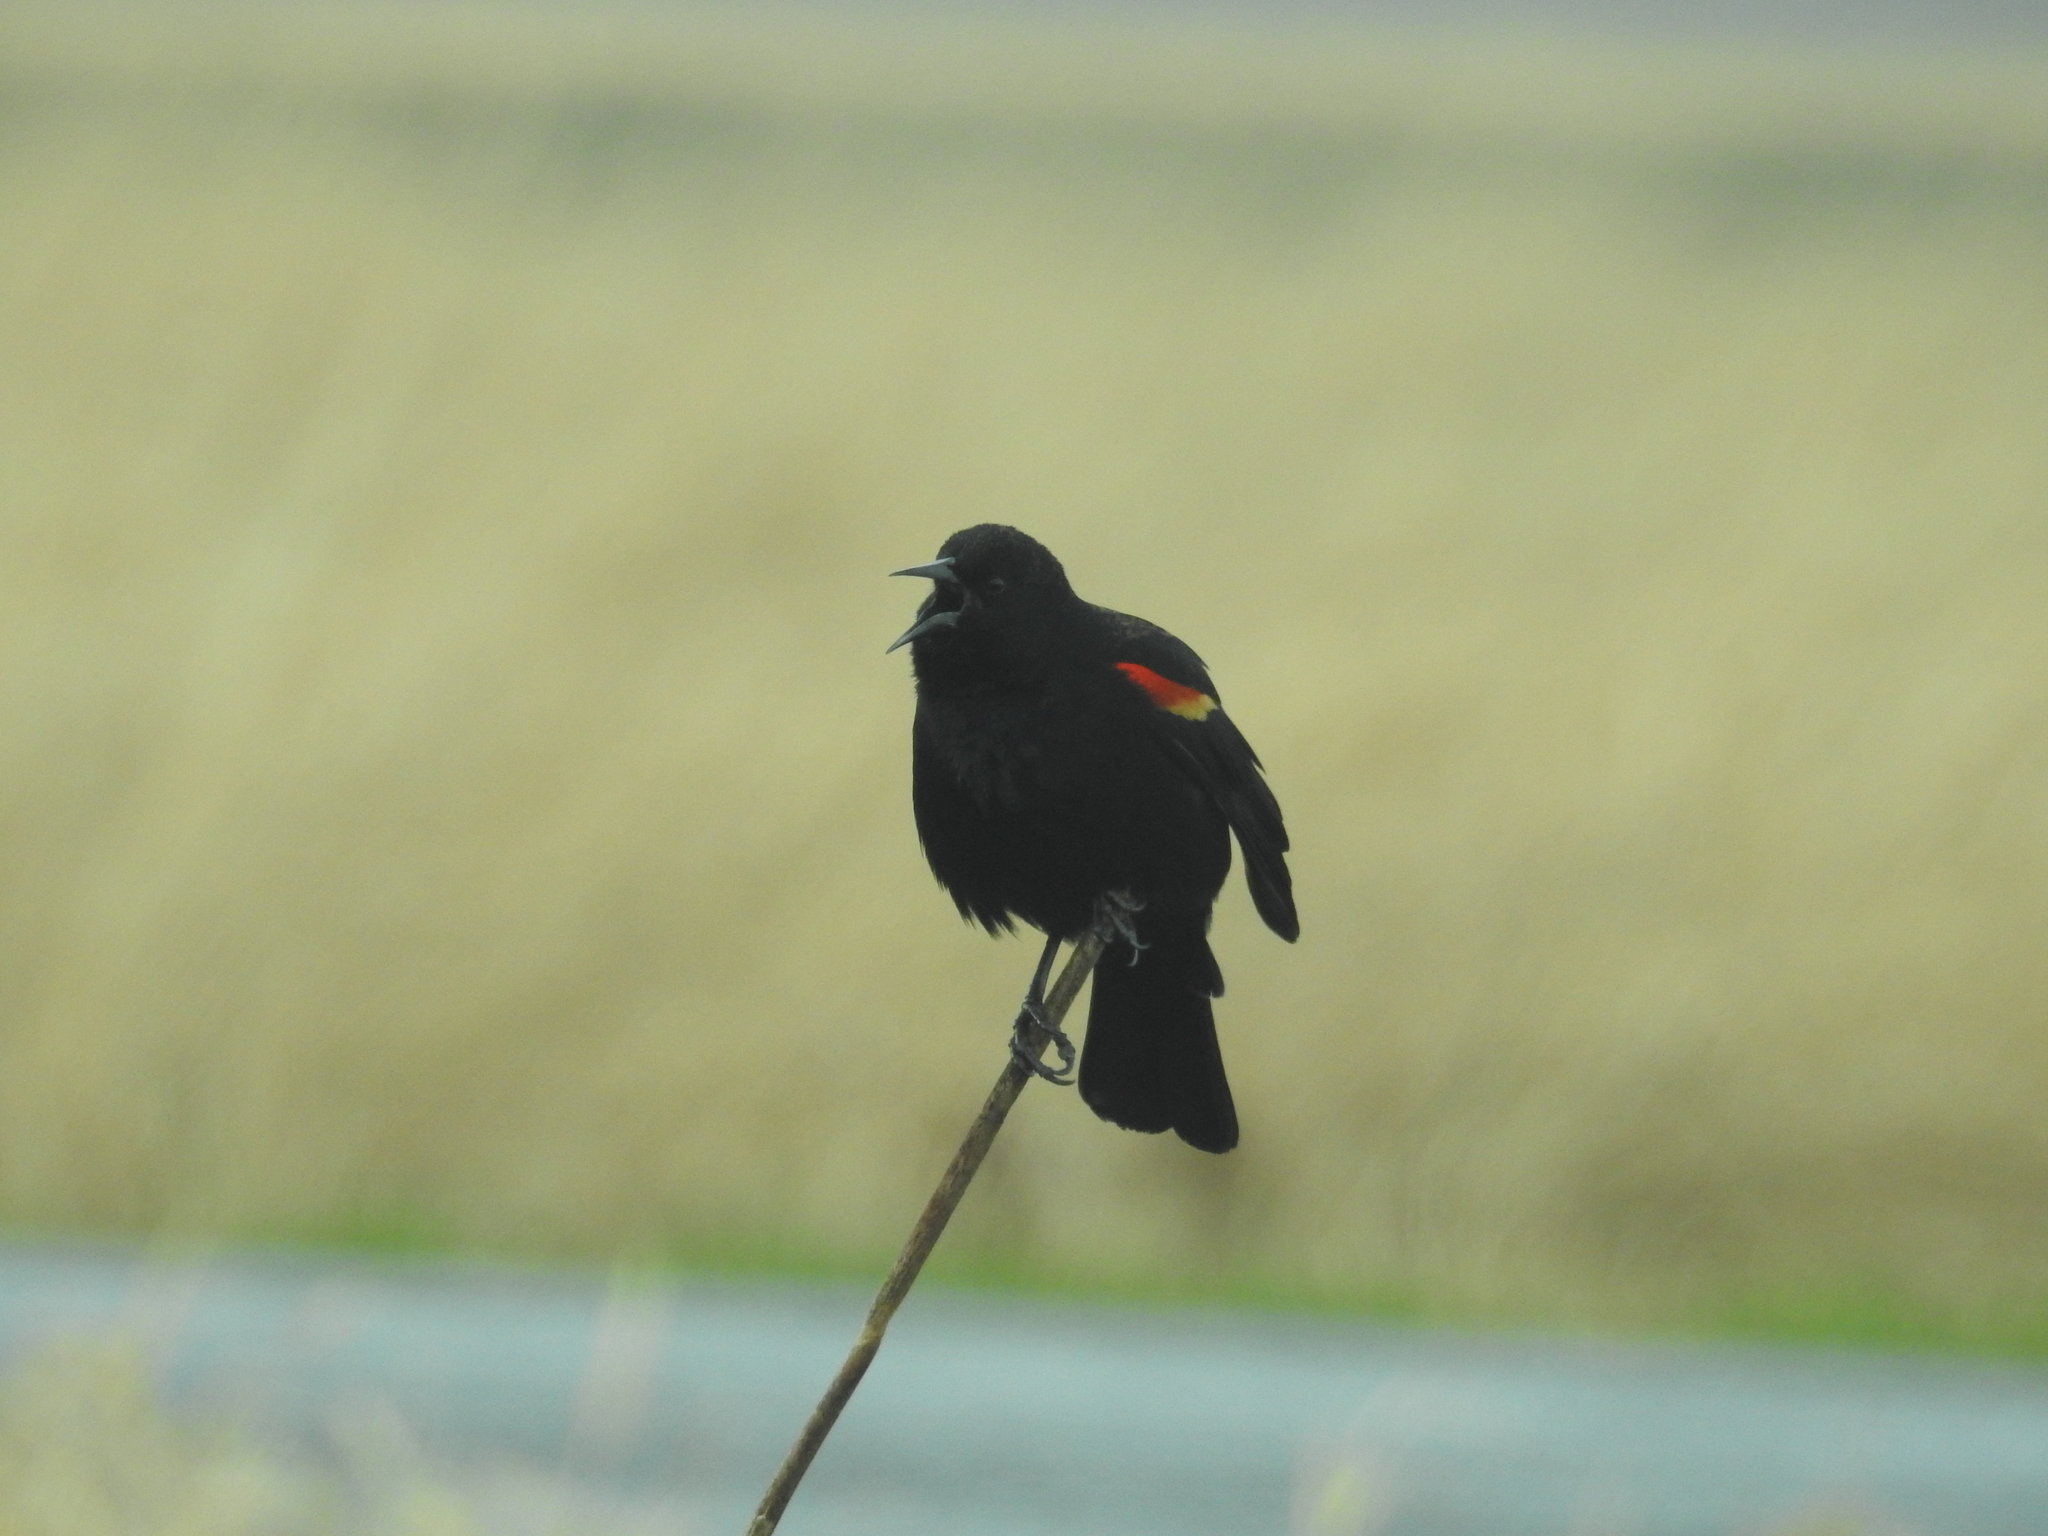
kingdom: Animalia
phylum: Chordata
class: Aves
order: Passeriformes
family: Icteridae
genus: Agelaius
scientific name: Agelaius phoeniceus
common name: Red-winged blackbird
